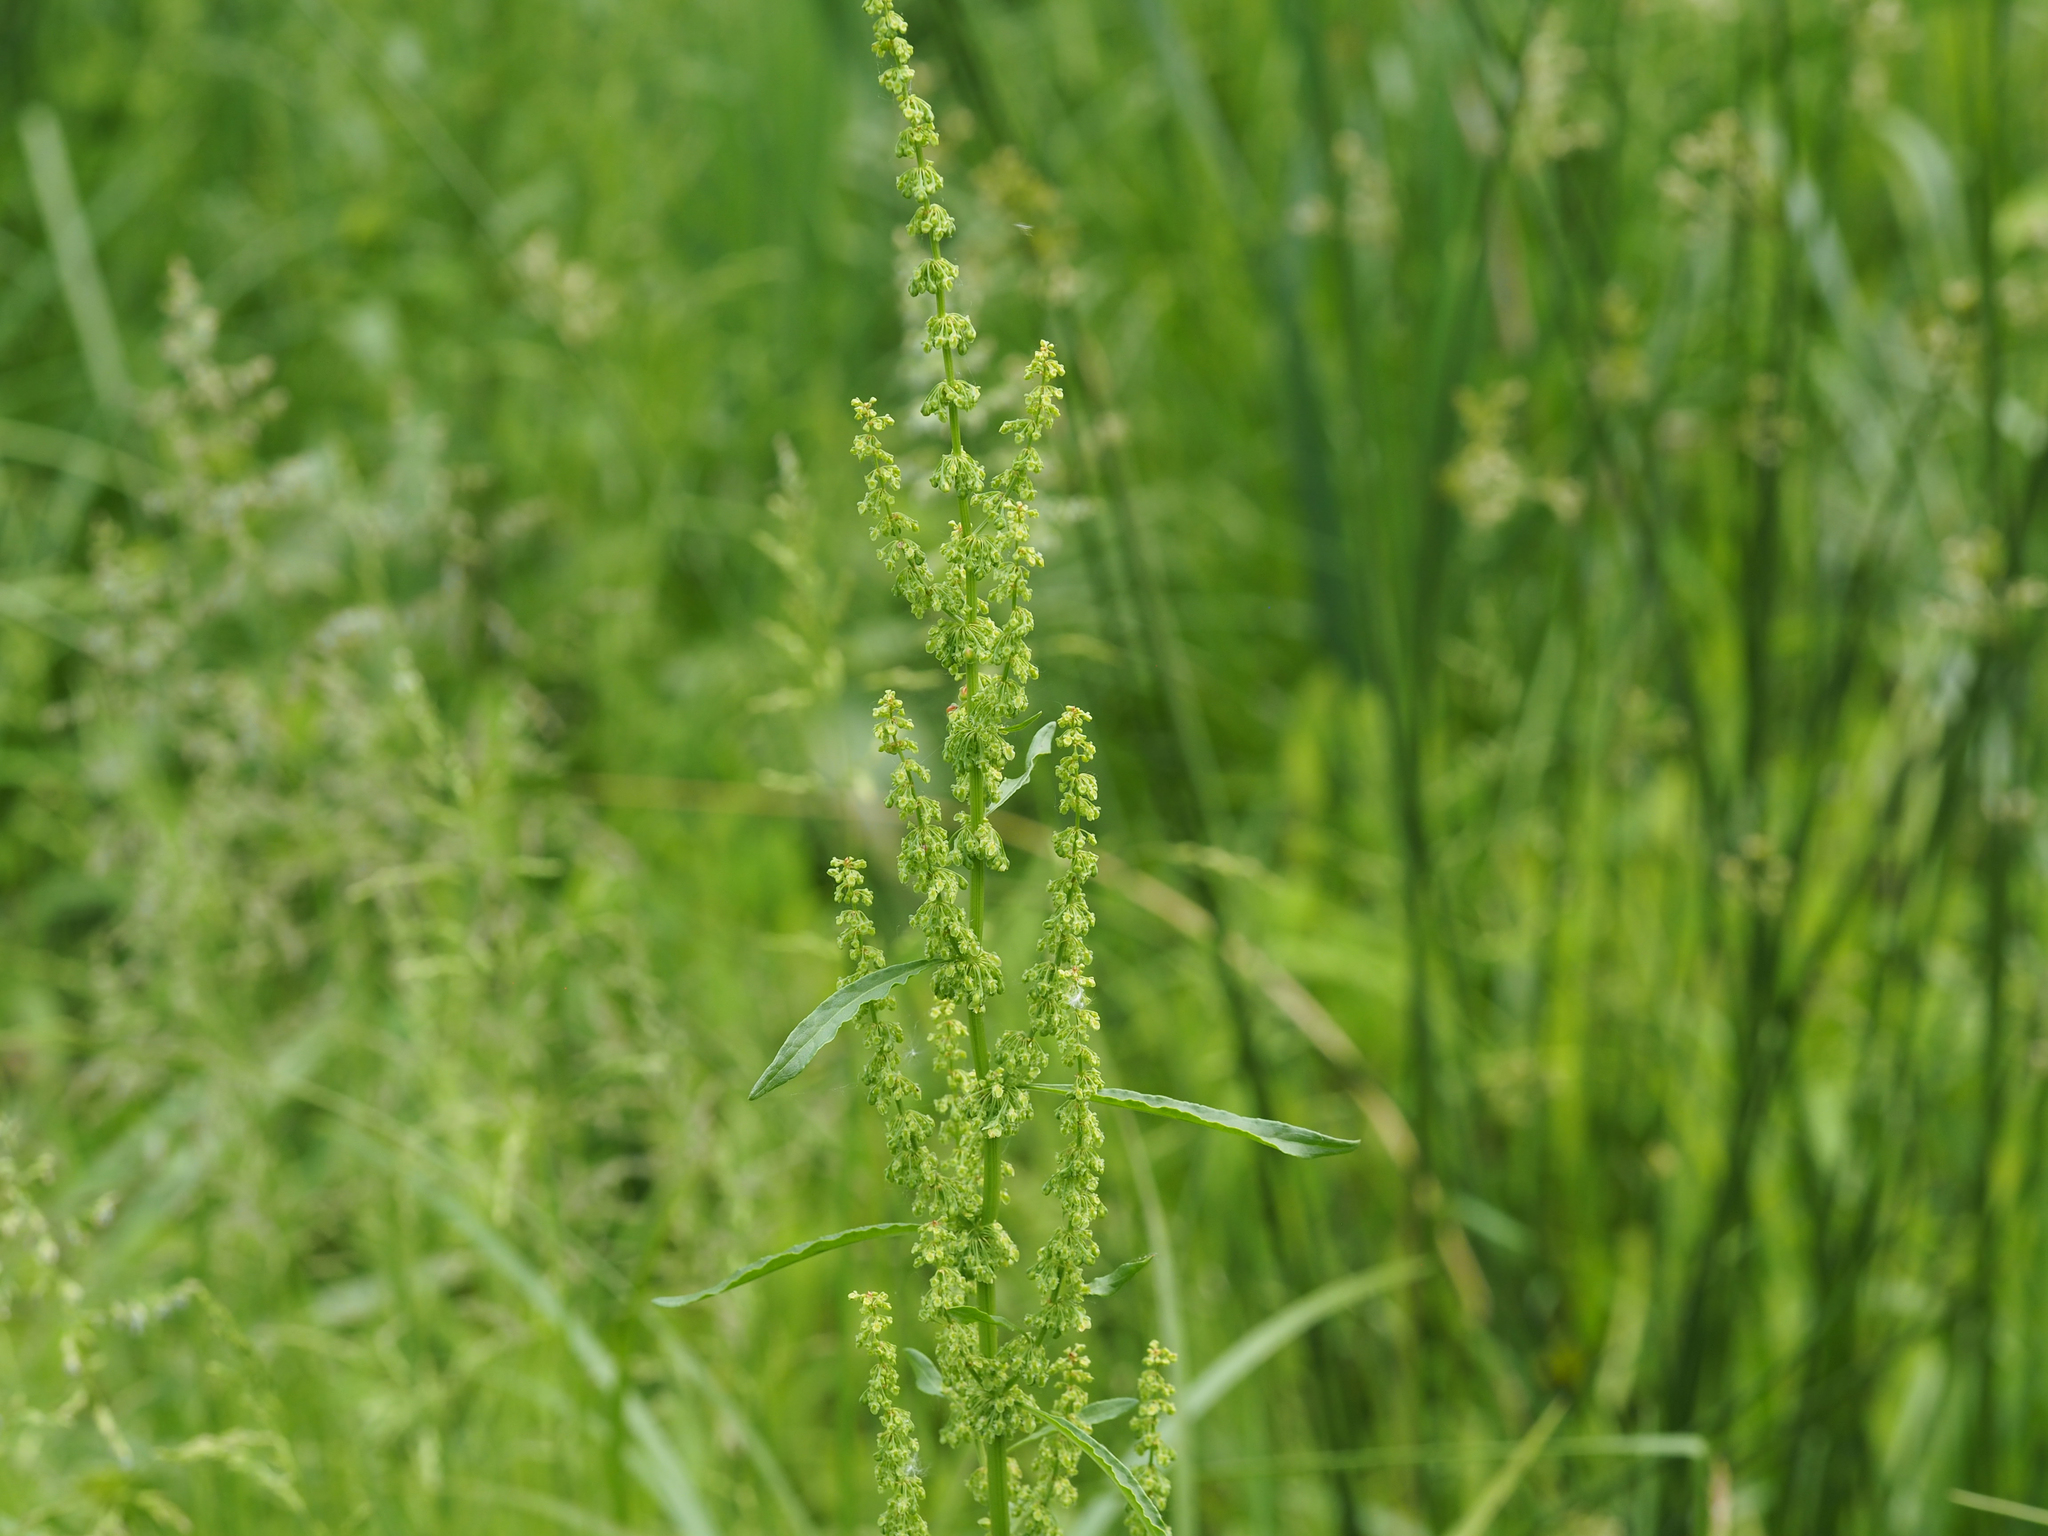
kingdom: Plantae
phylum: Tracheophyta
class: Magnoliopsida
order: Caryophyllales
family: Polygonaceae
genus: Rumex
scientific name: Rumex crispus
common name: Curled dock
